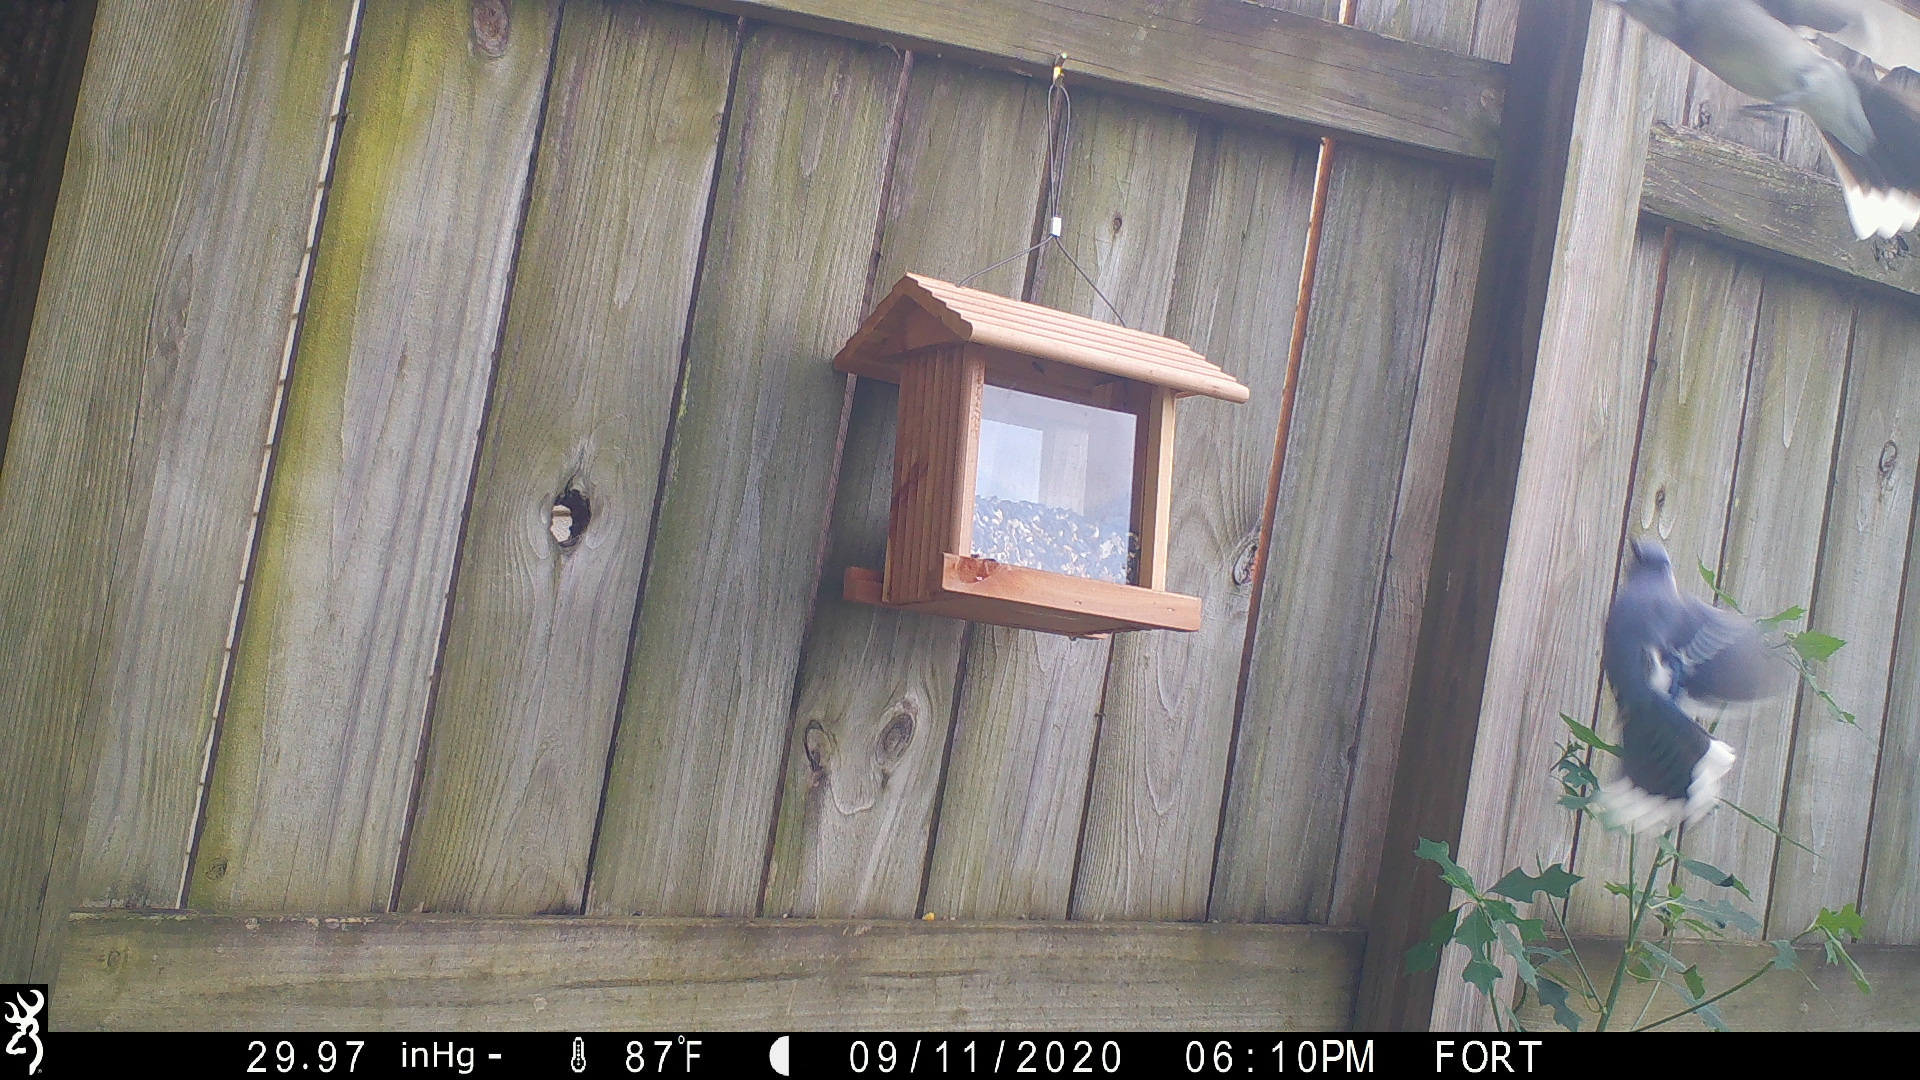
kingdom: Animalia
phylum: Chordata
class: Aves
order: Passeriformes
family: Corvidae
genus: Cyanocitta
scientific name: Cyanocitta cristata
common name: Blue jay
